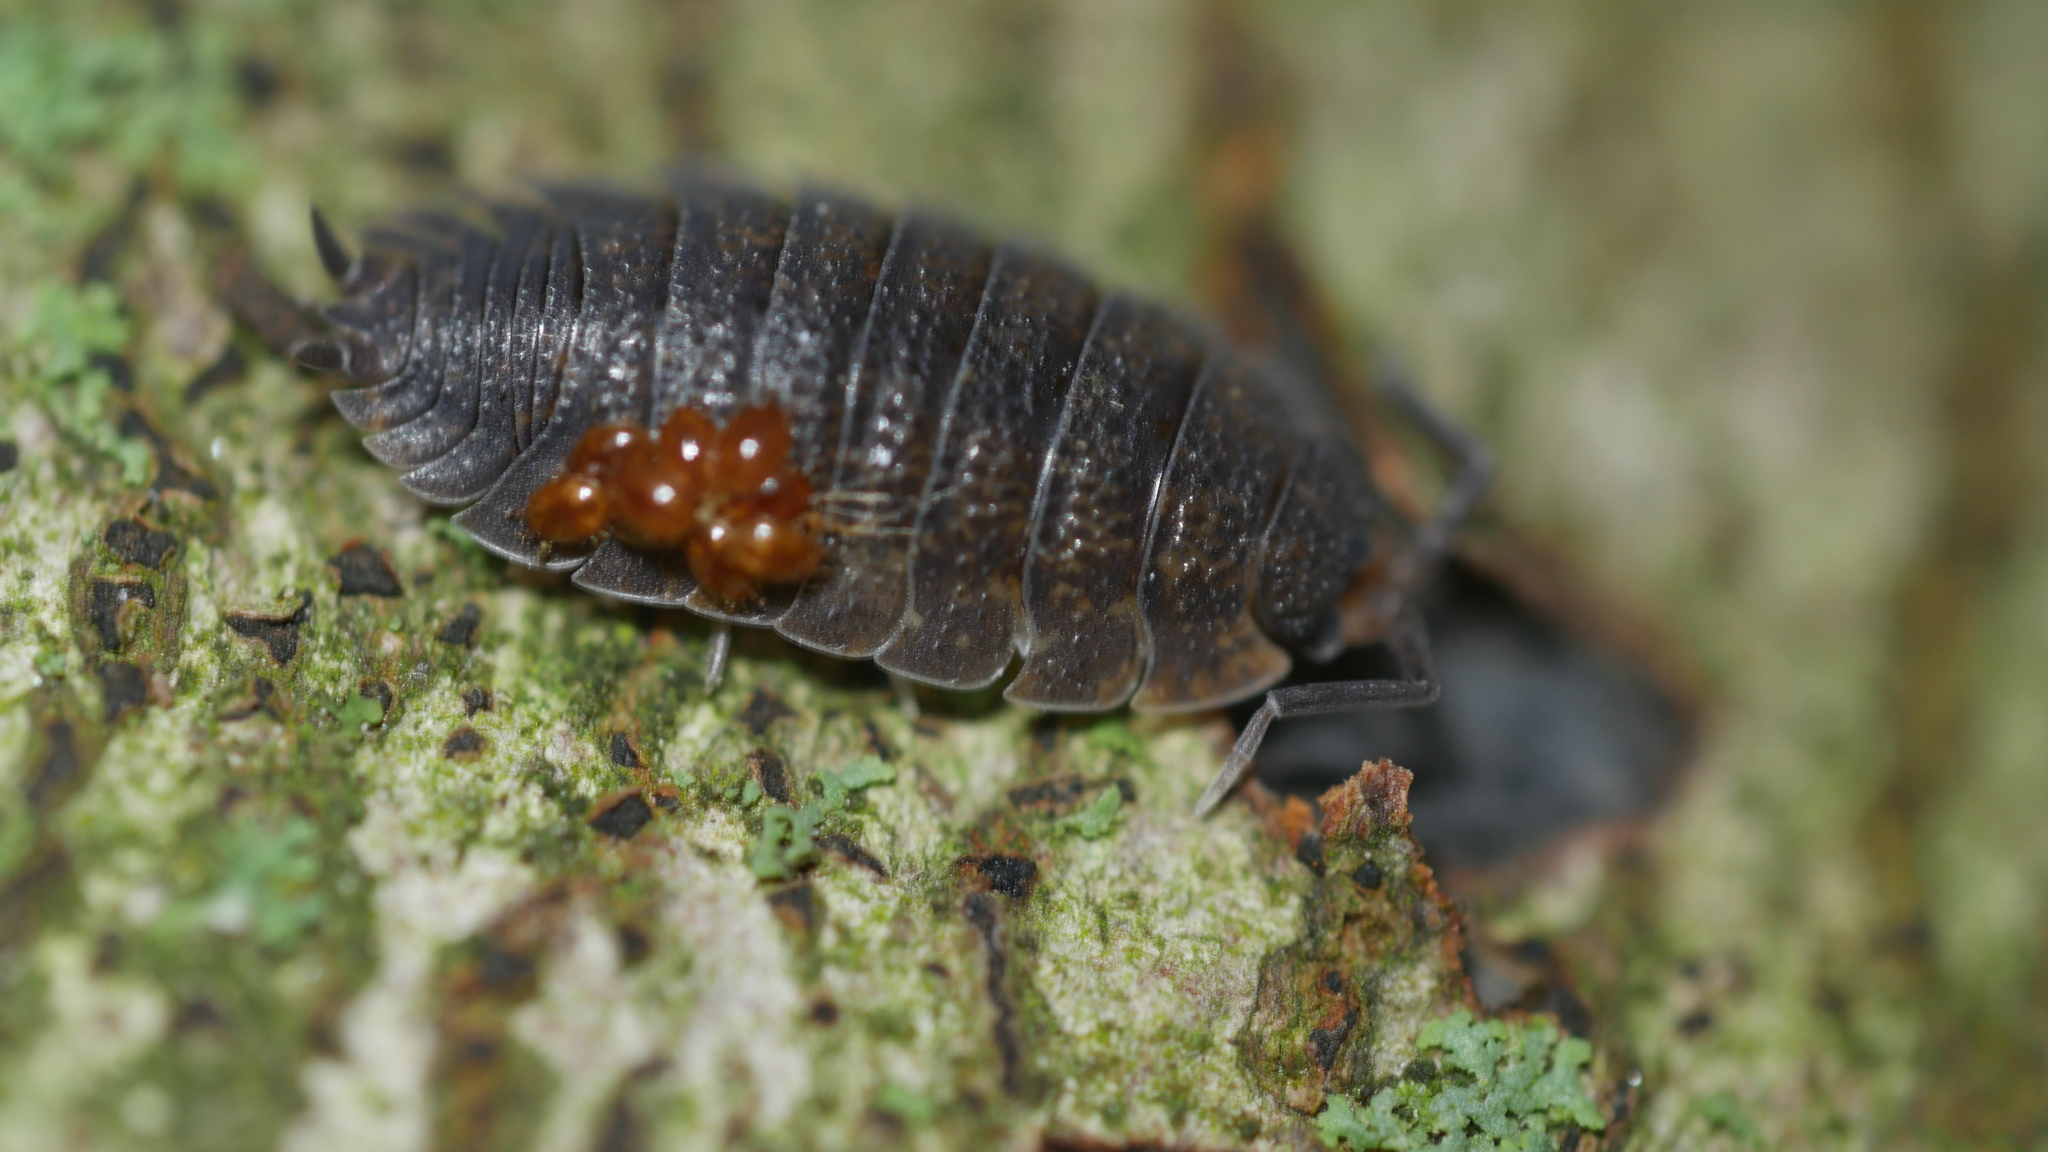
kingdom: Animalia
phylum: Arthropoda
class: Malacostraca
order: Isopoda
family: Porcellionidae
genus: Porcellio
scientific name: Porcellio scaber
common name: Common rough woodlouse
